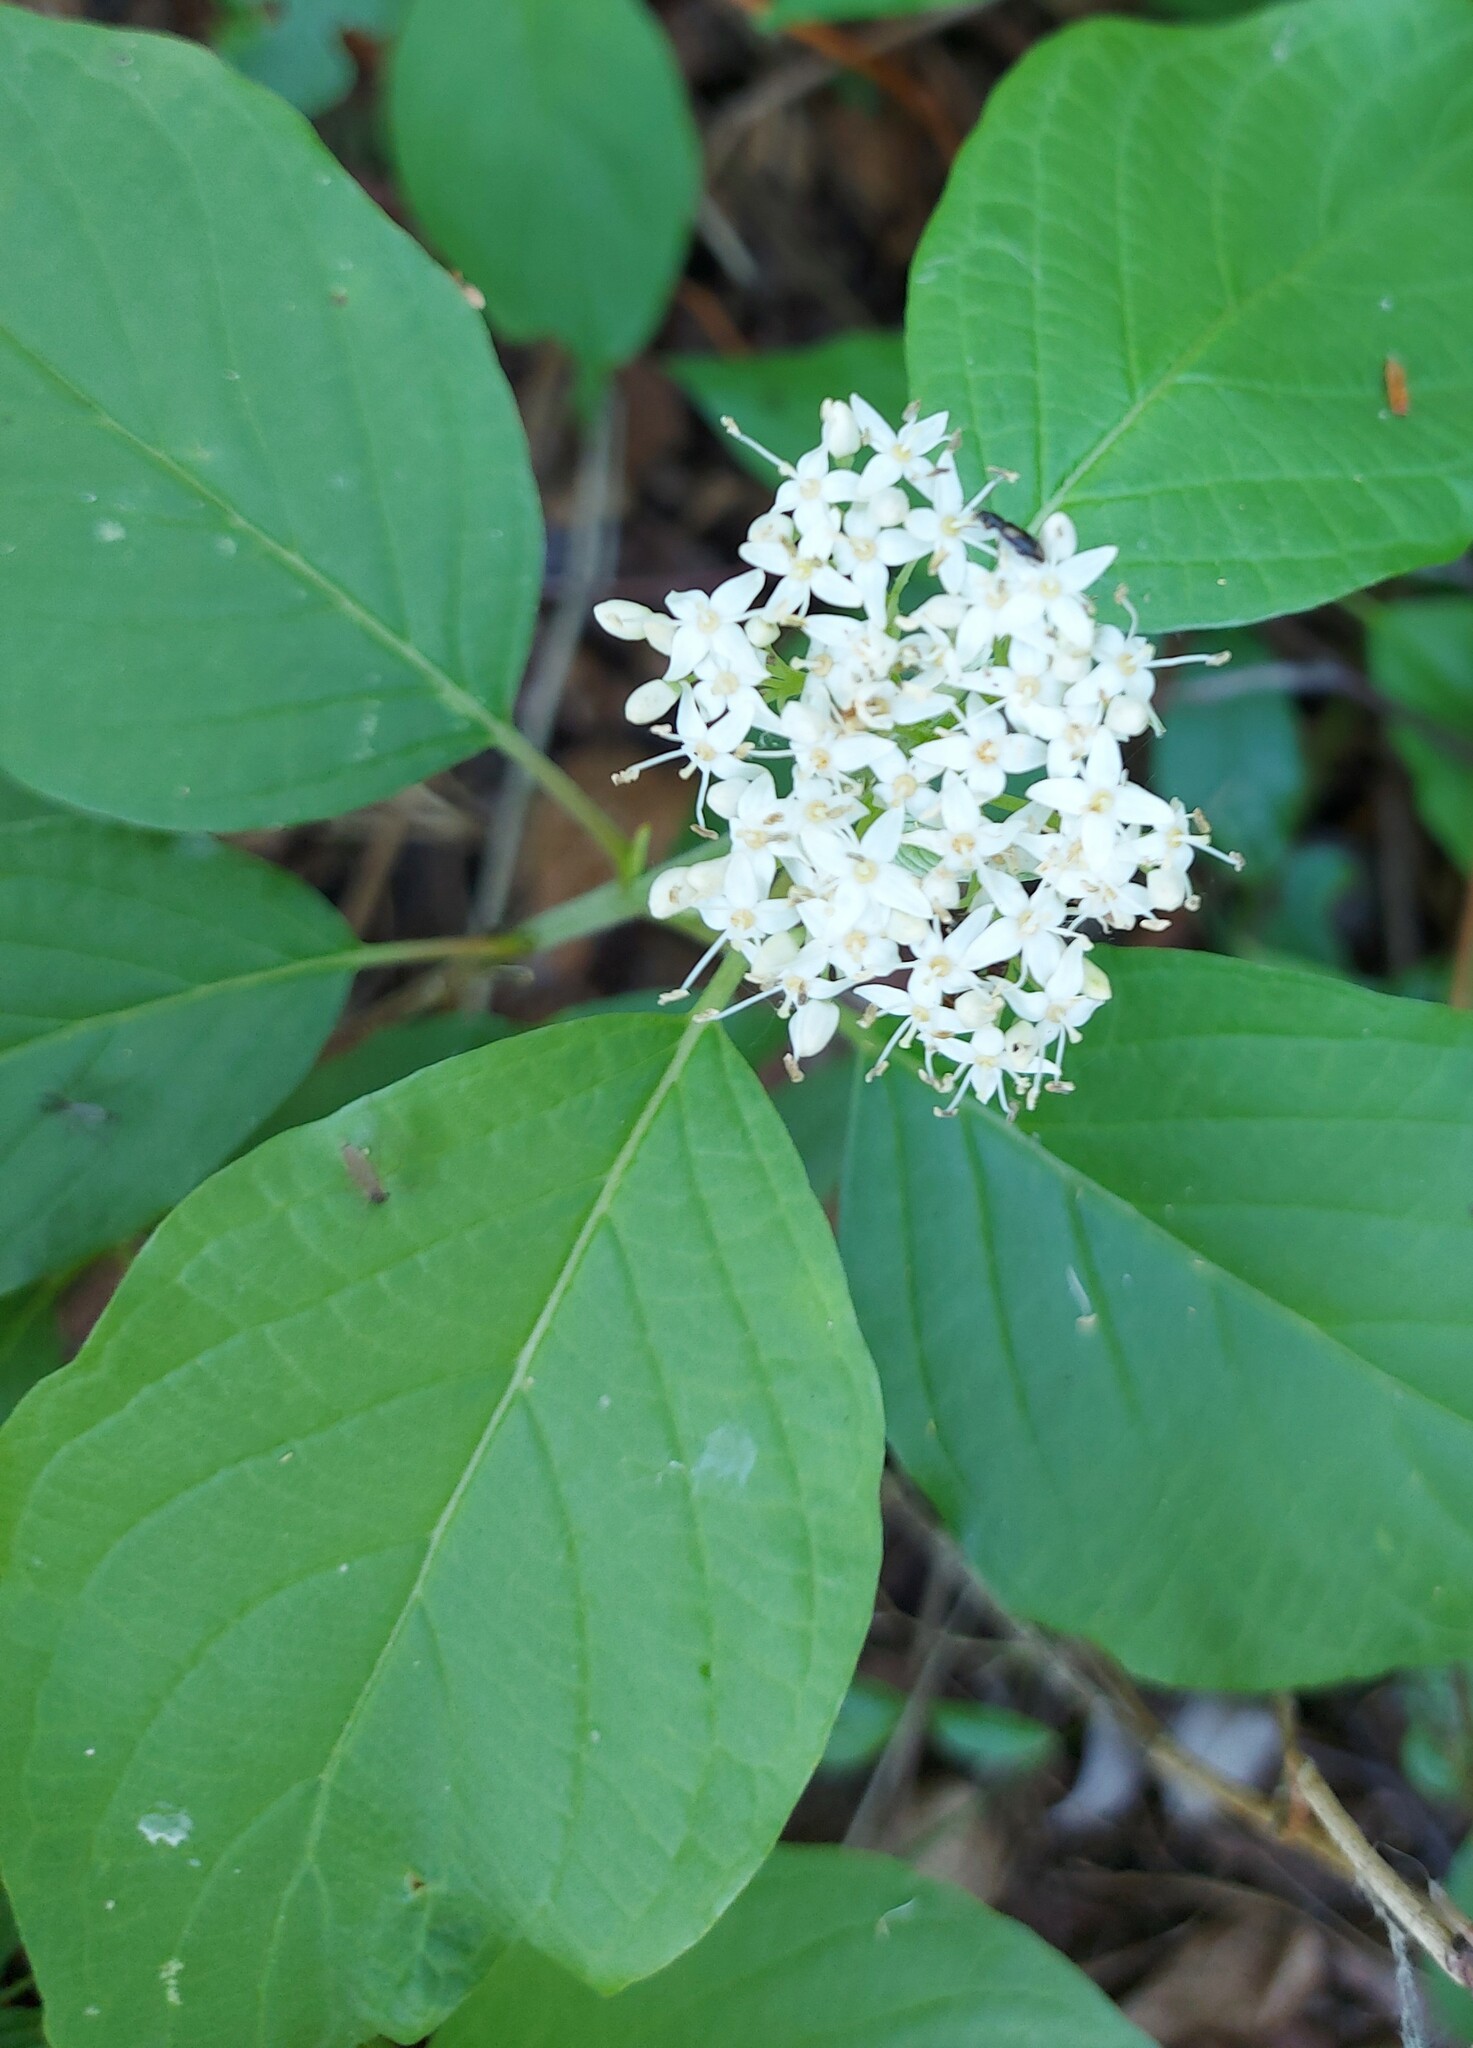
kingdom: Plantae
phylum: Tracheophyta
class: Magnoliopsida
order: Cornales
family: Cornaceae
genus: Cornus
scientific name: Cornus sericea
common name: Red-osier dogwood
